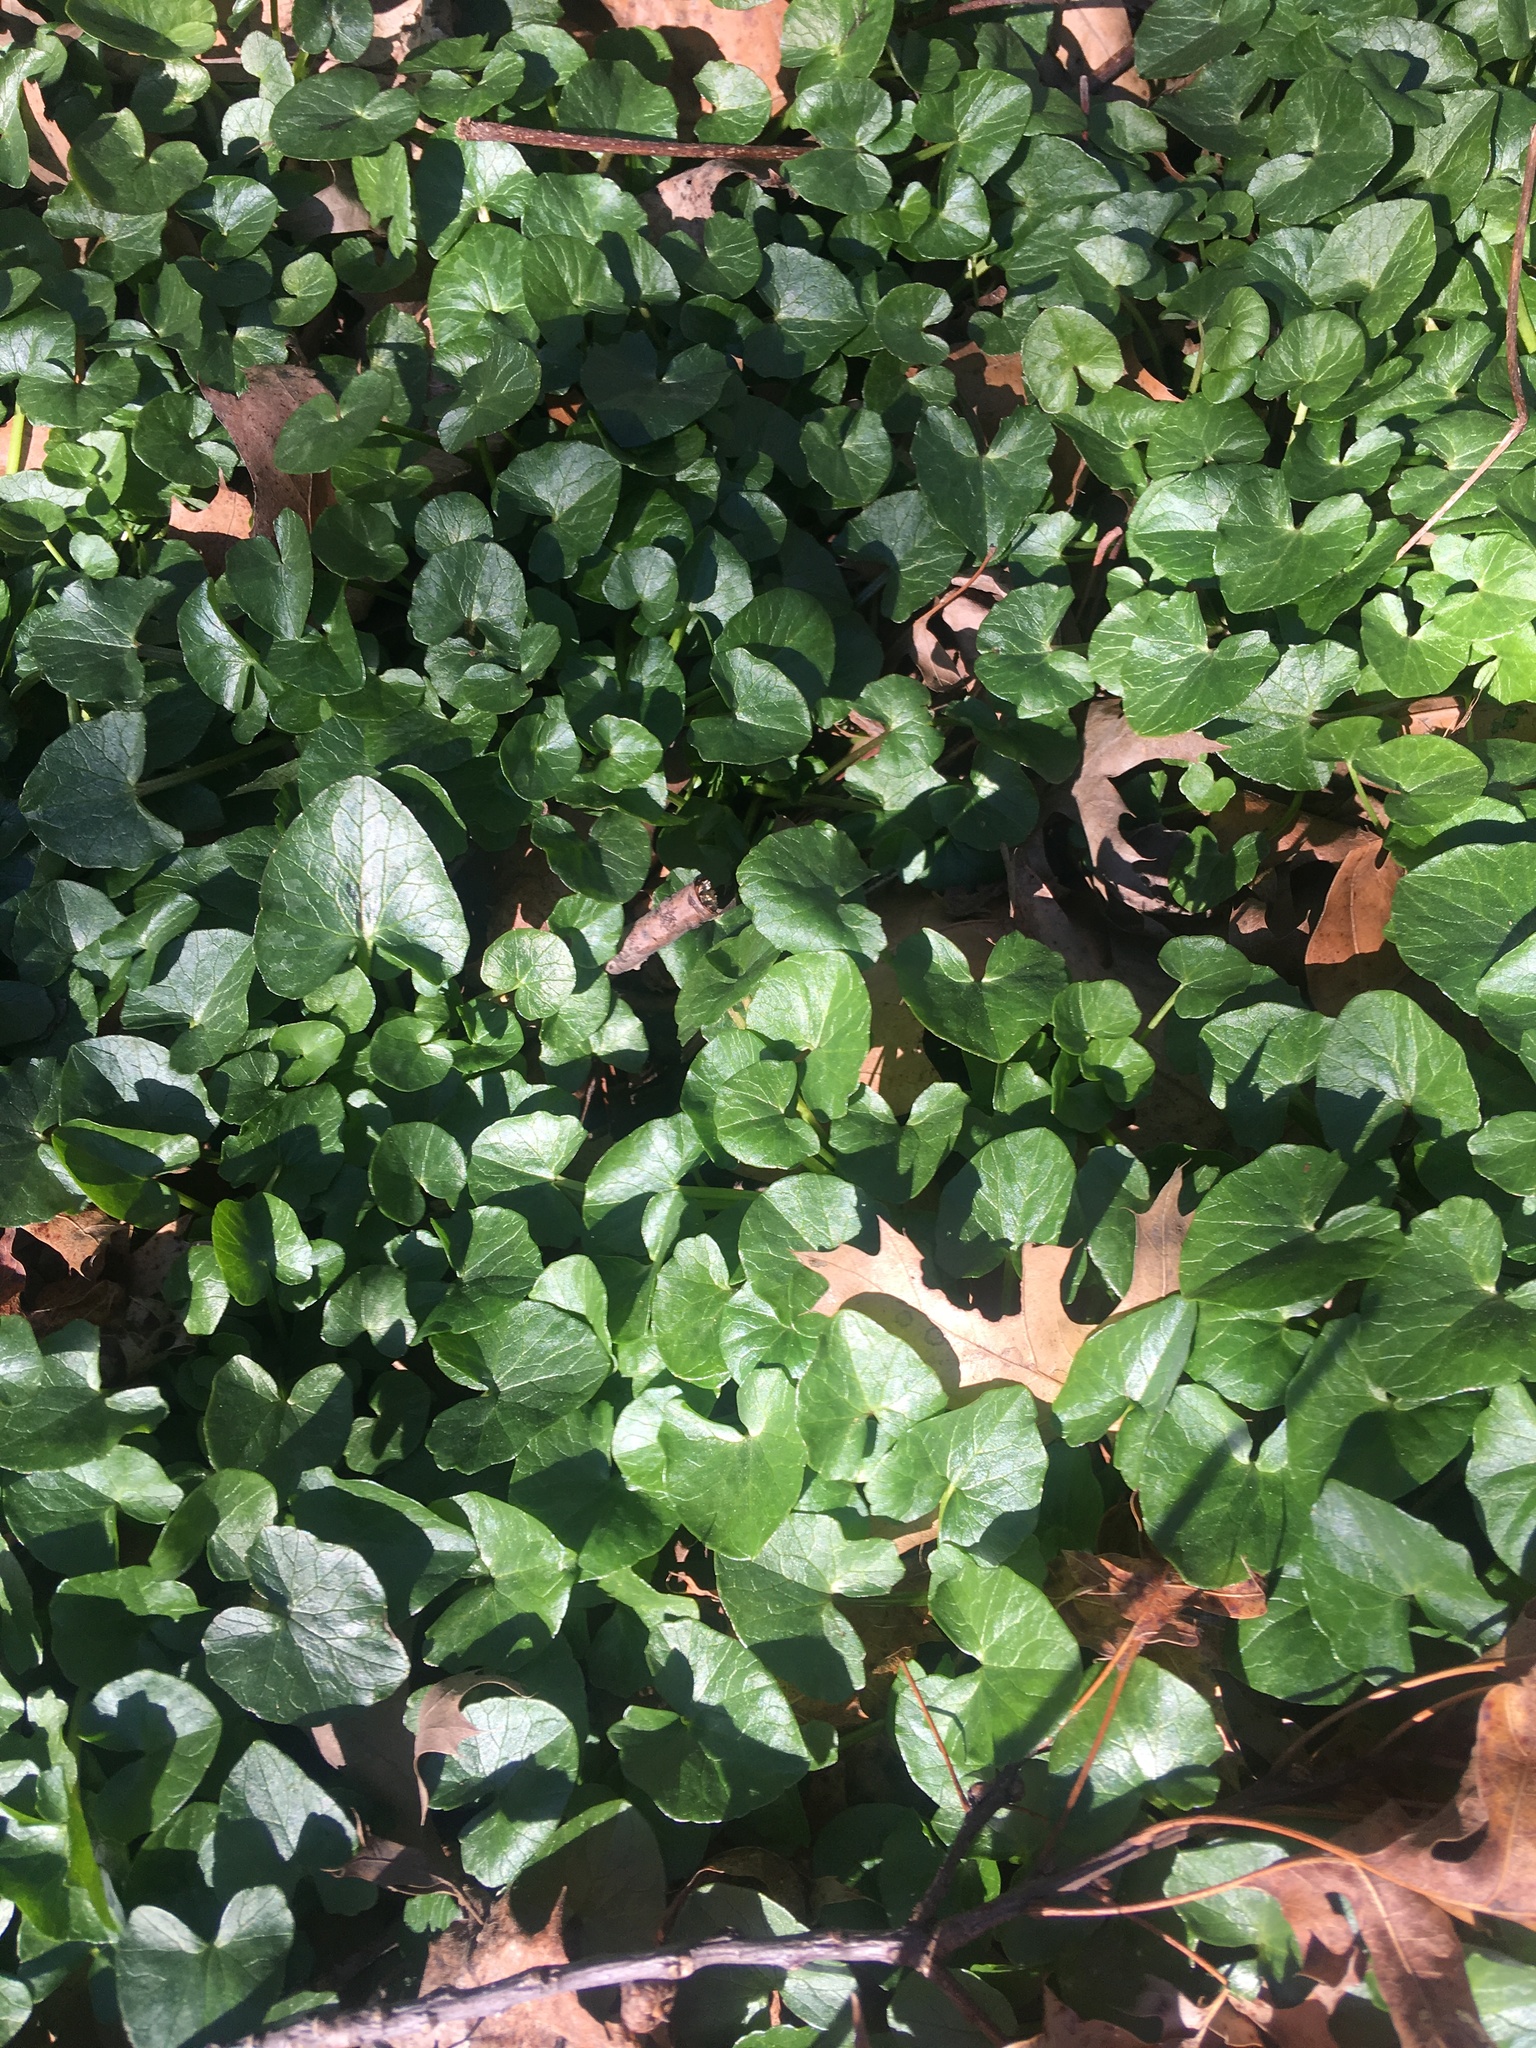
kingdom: Plantae
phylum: Tracheophyta
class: Magnoliopsida
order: Ranunculales
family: Ranunculaceae
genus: Ficaria
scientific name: Ficaria verna
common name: Lesser celandine
